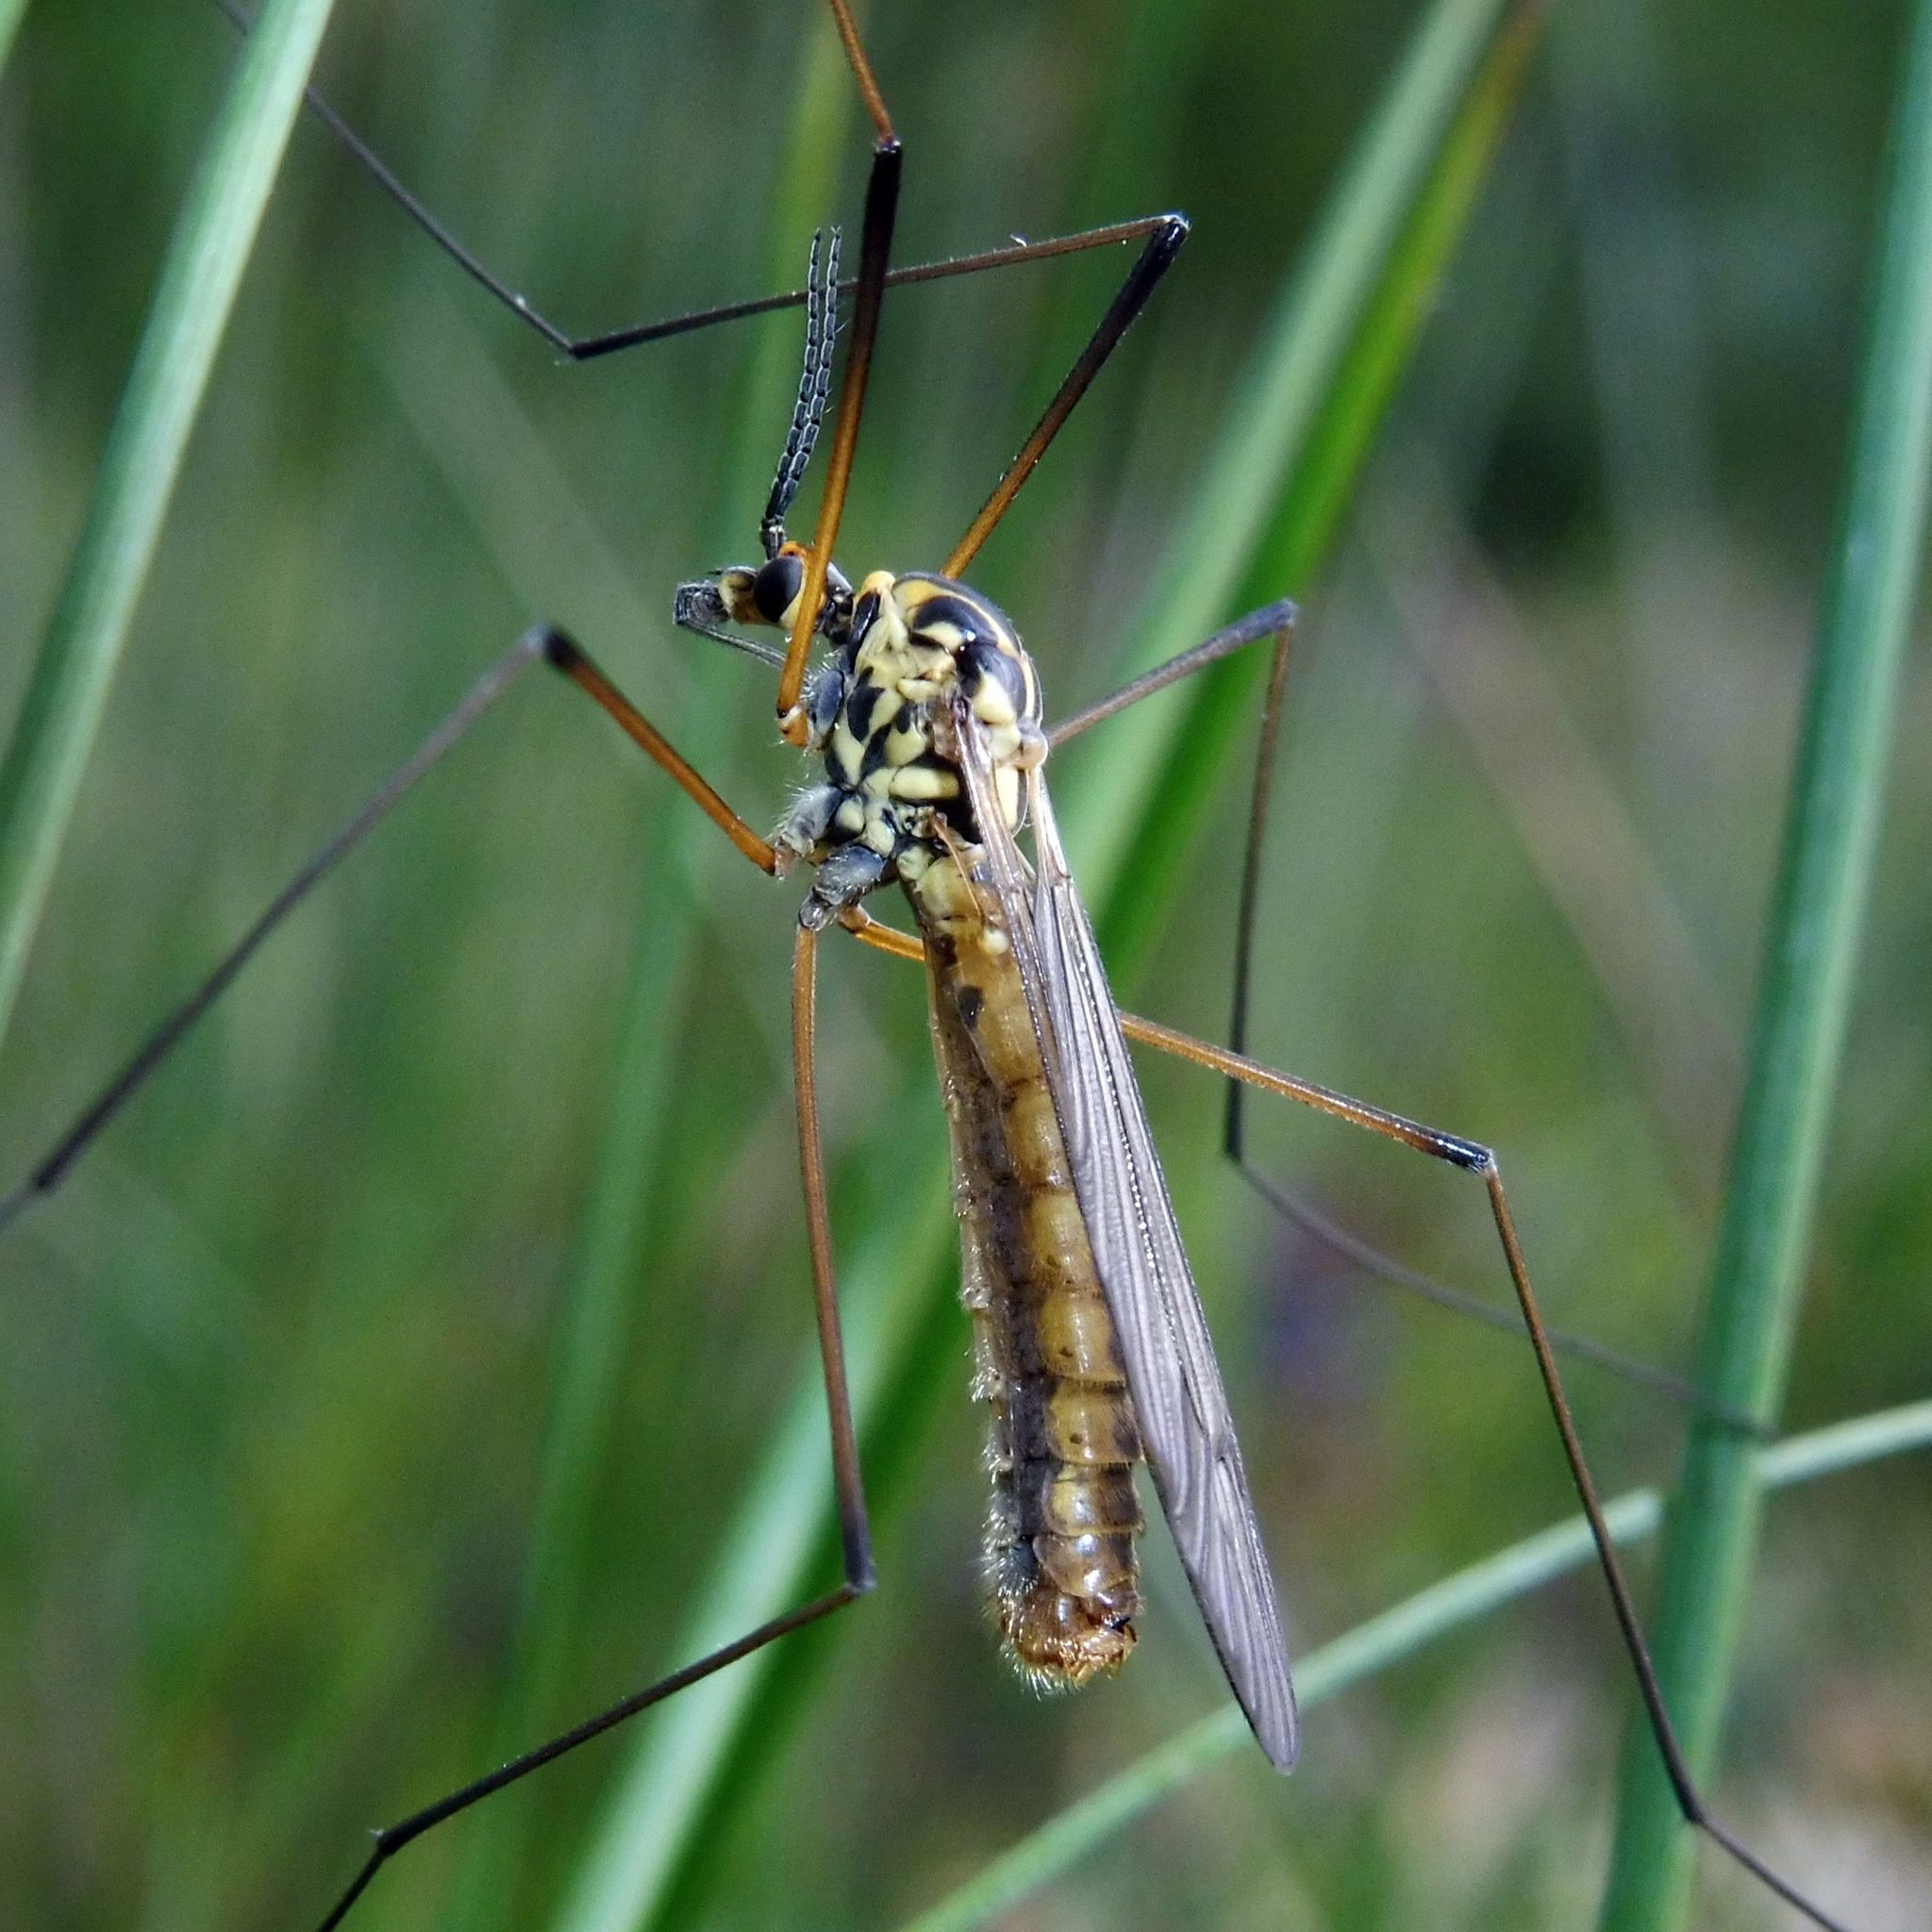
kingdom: Animalia
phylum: Arthropoda
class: Insecta
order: Diptera
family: Tipulidae
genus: Nephrotoma
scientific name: Nephrotoma appendiculata
